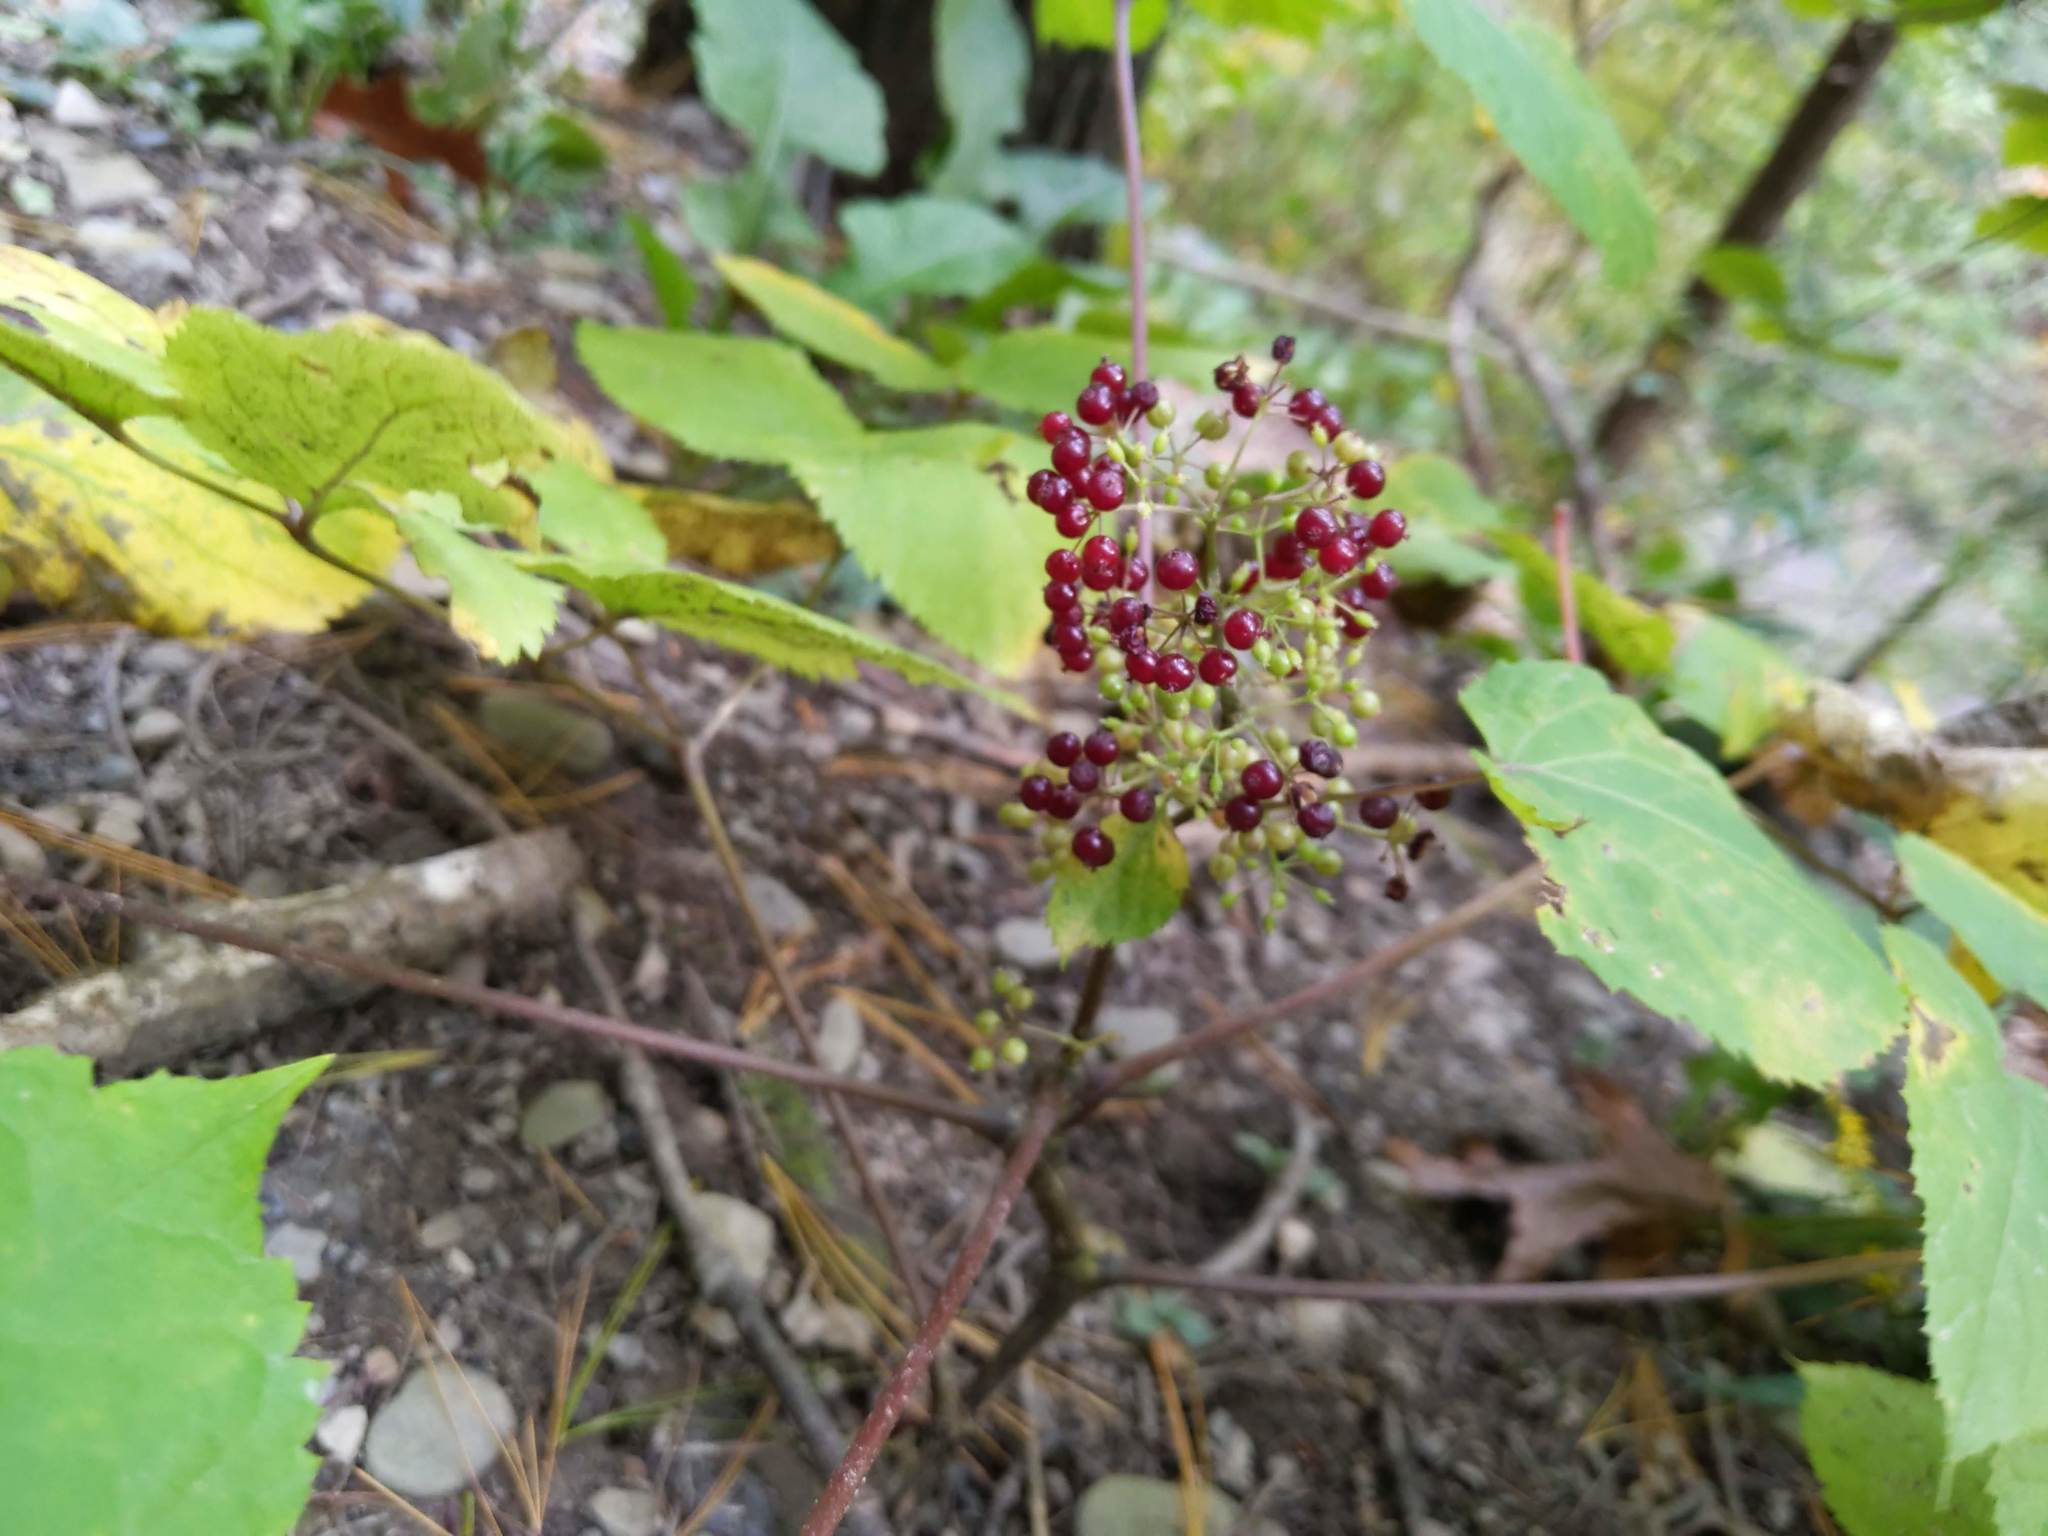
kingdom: Plantae
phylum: Tracheophyta
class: Magnoliopsida
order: Apiales
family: Araliaceae
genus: Aralia
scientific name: Aralia racemosa
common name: American-spikenard
